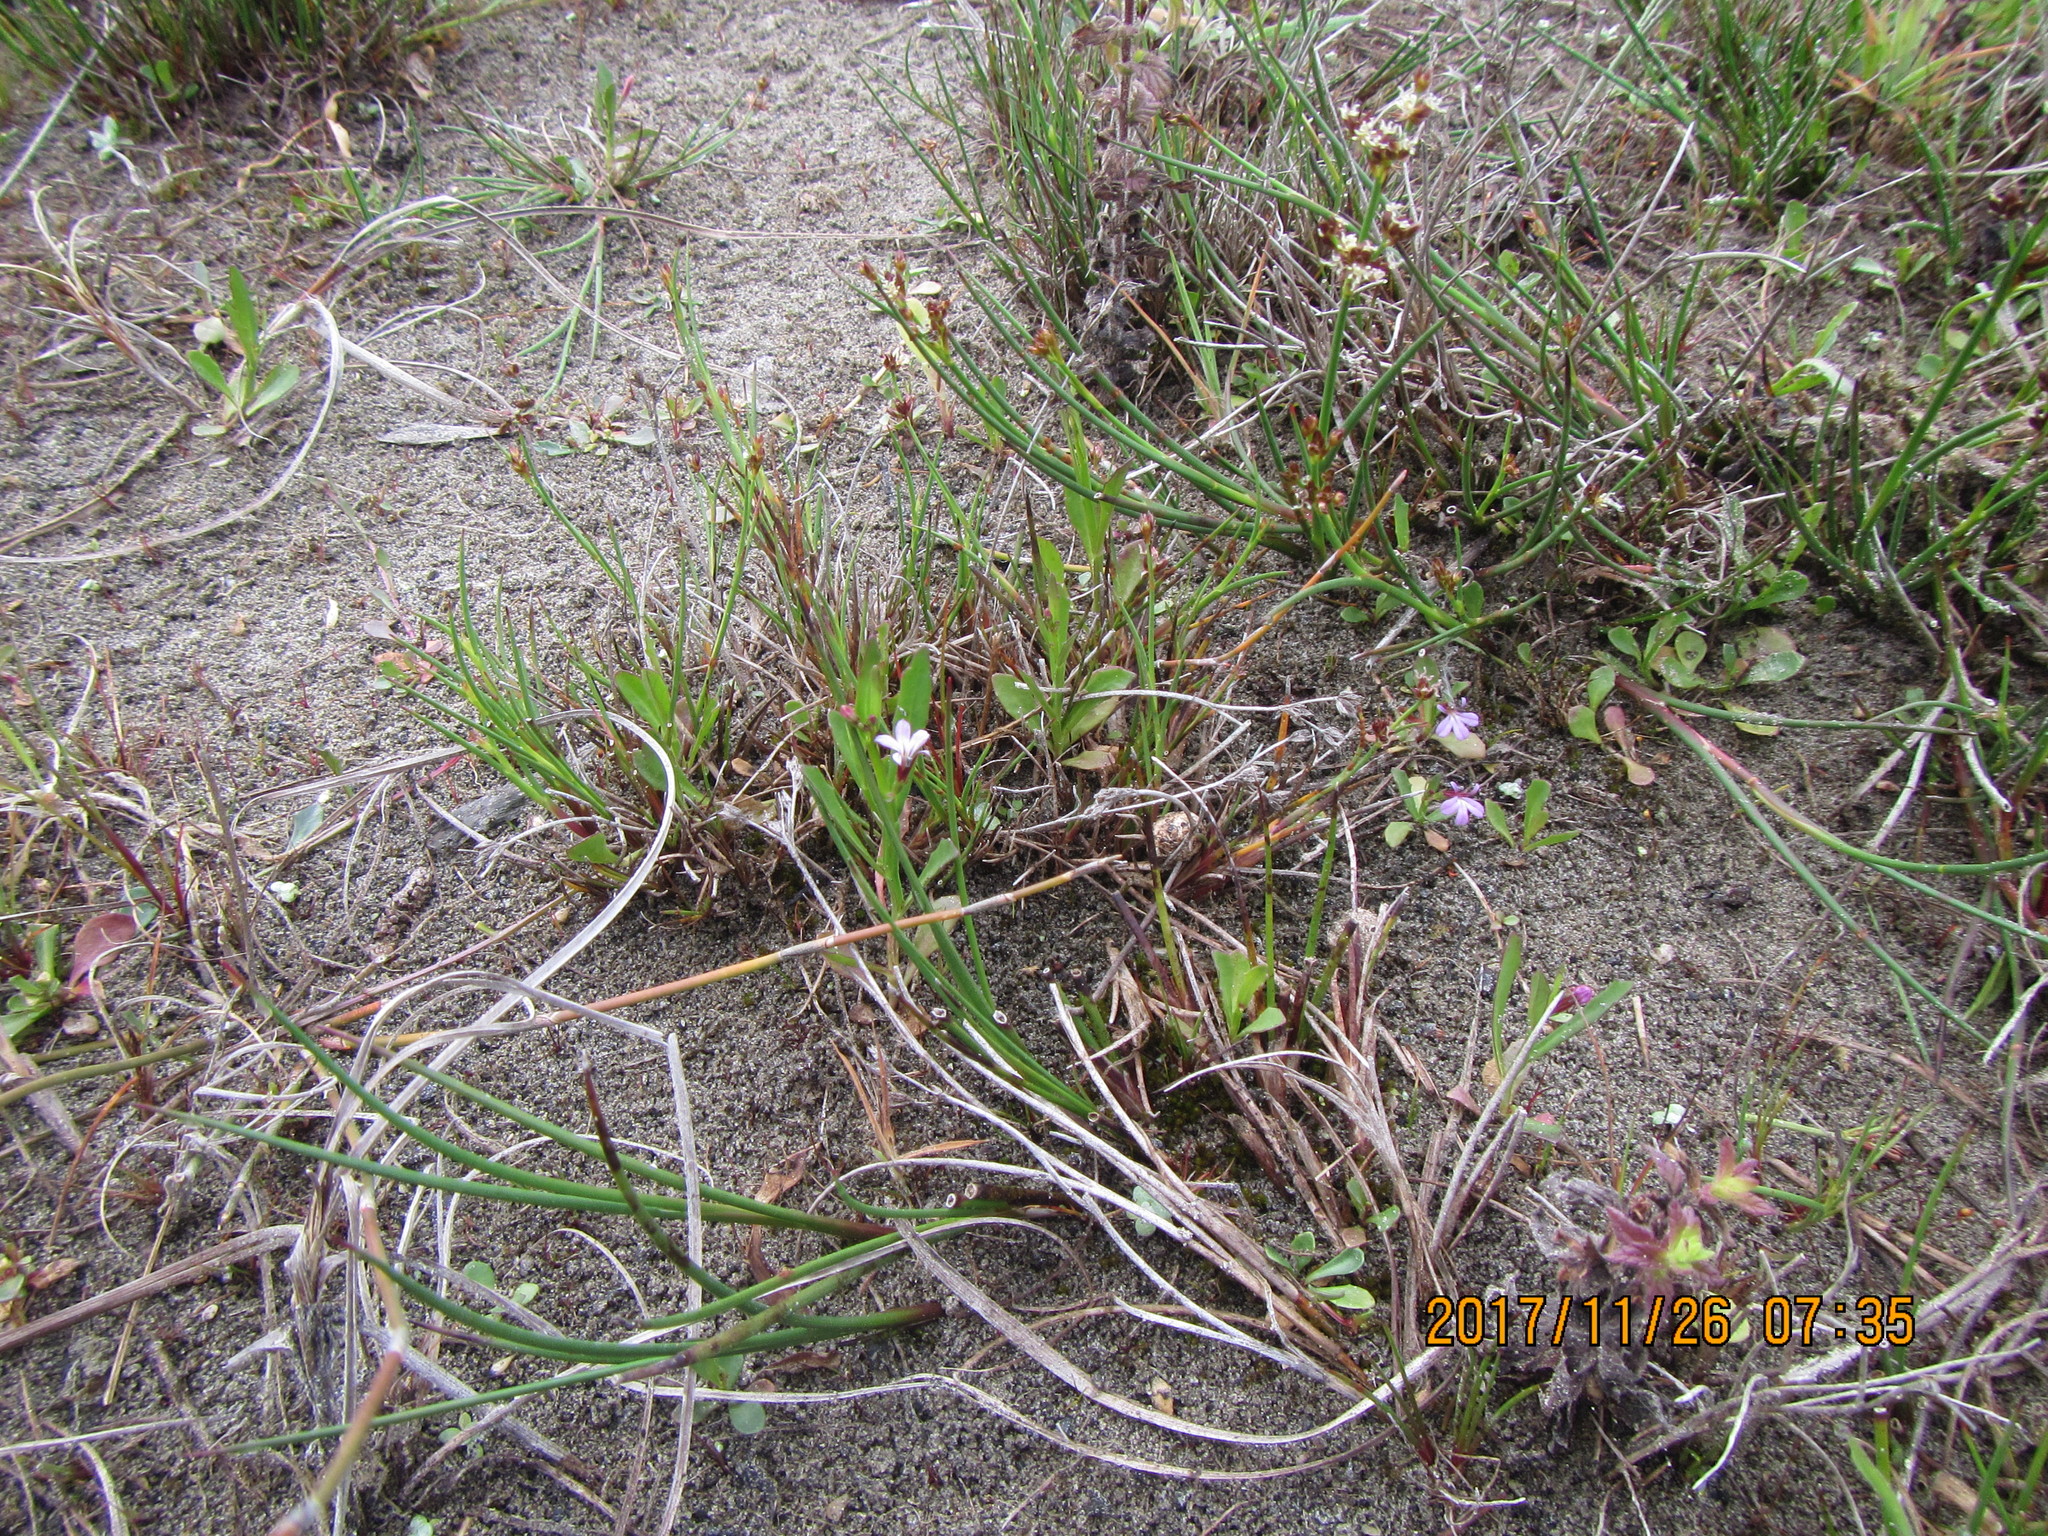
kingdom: Plantae
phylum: Tracheophyta
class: Magnoliopsida
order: Asterales
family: Campanulaceae
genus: Lobelia
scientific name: Lobelia anceps
